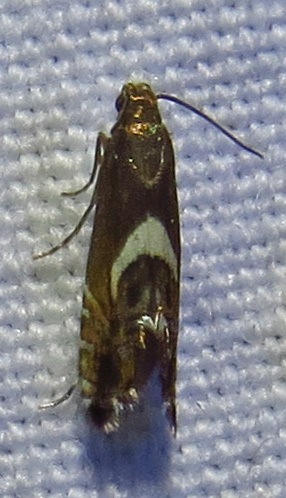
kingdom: Animalia
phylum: Arthropoda
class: Insecta
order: Lepidoptera
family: Glyphipterigidae
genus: Glyphipterix
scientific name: Glyphipterix Diploschizia impigritella
